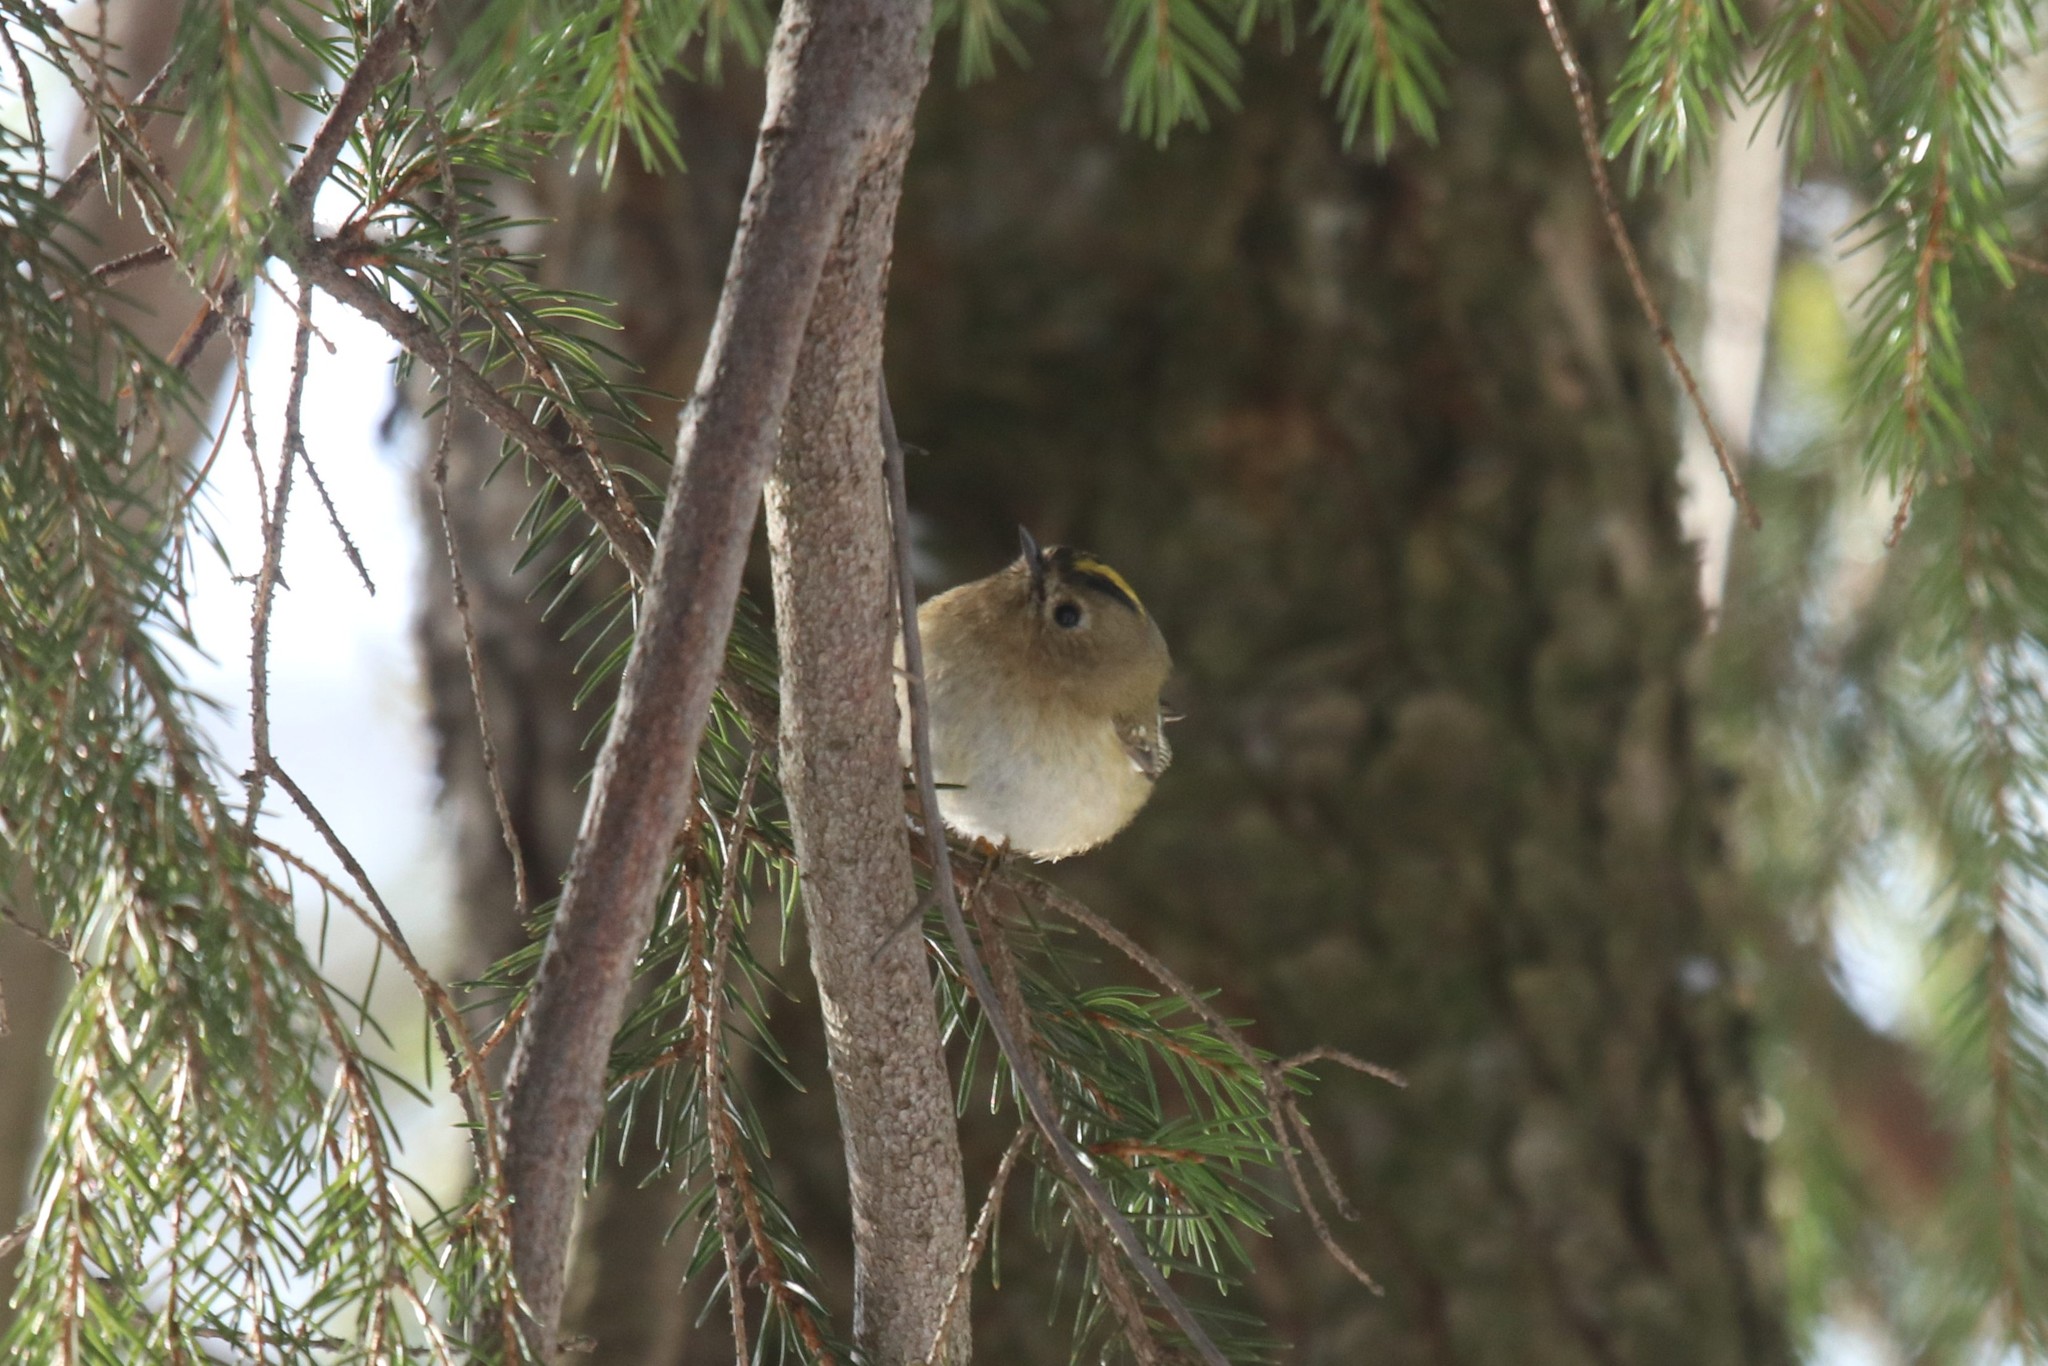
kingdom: Animalia
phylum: Chordata
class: Aves
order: Passeriformes
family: Regulidae
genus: Regulus
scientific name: Regulus regulus
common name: Goldcrest
